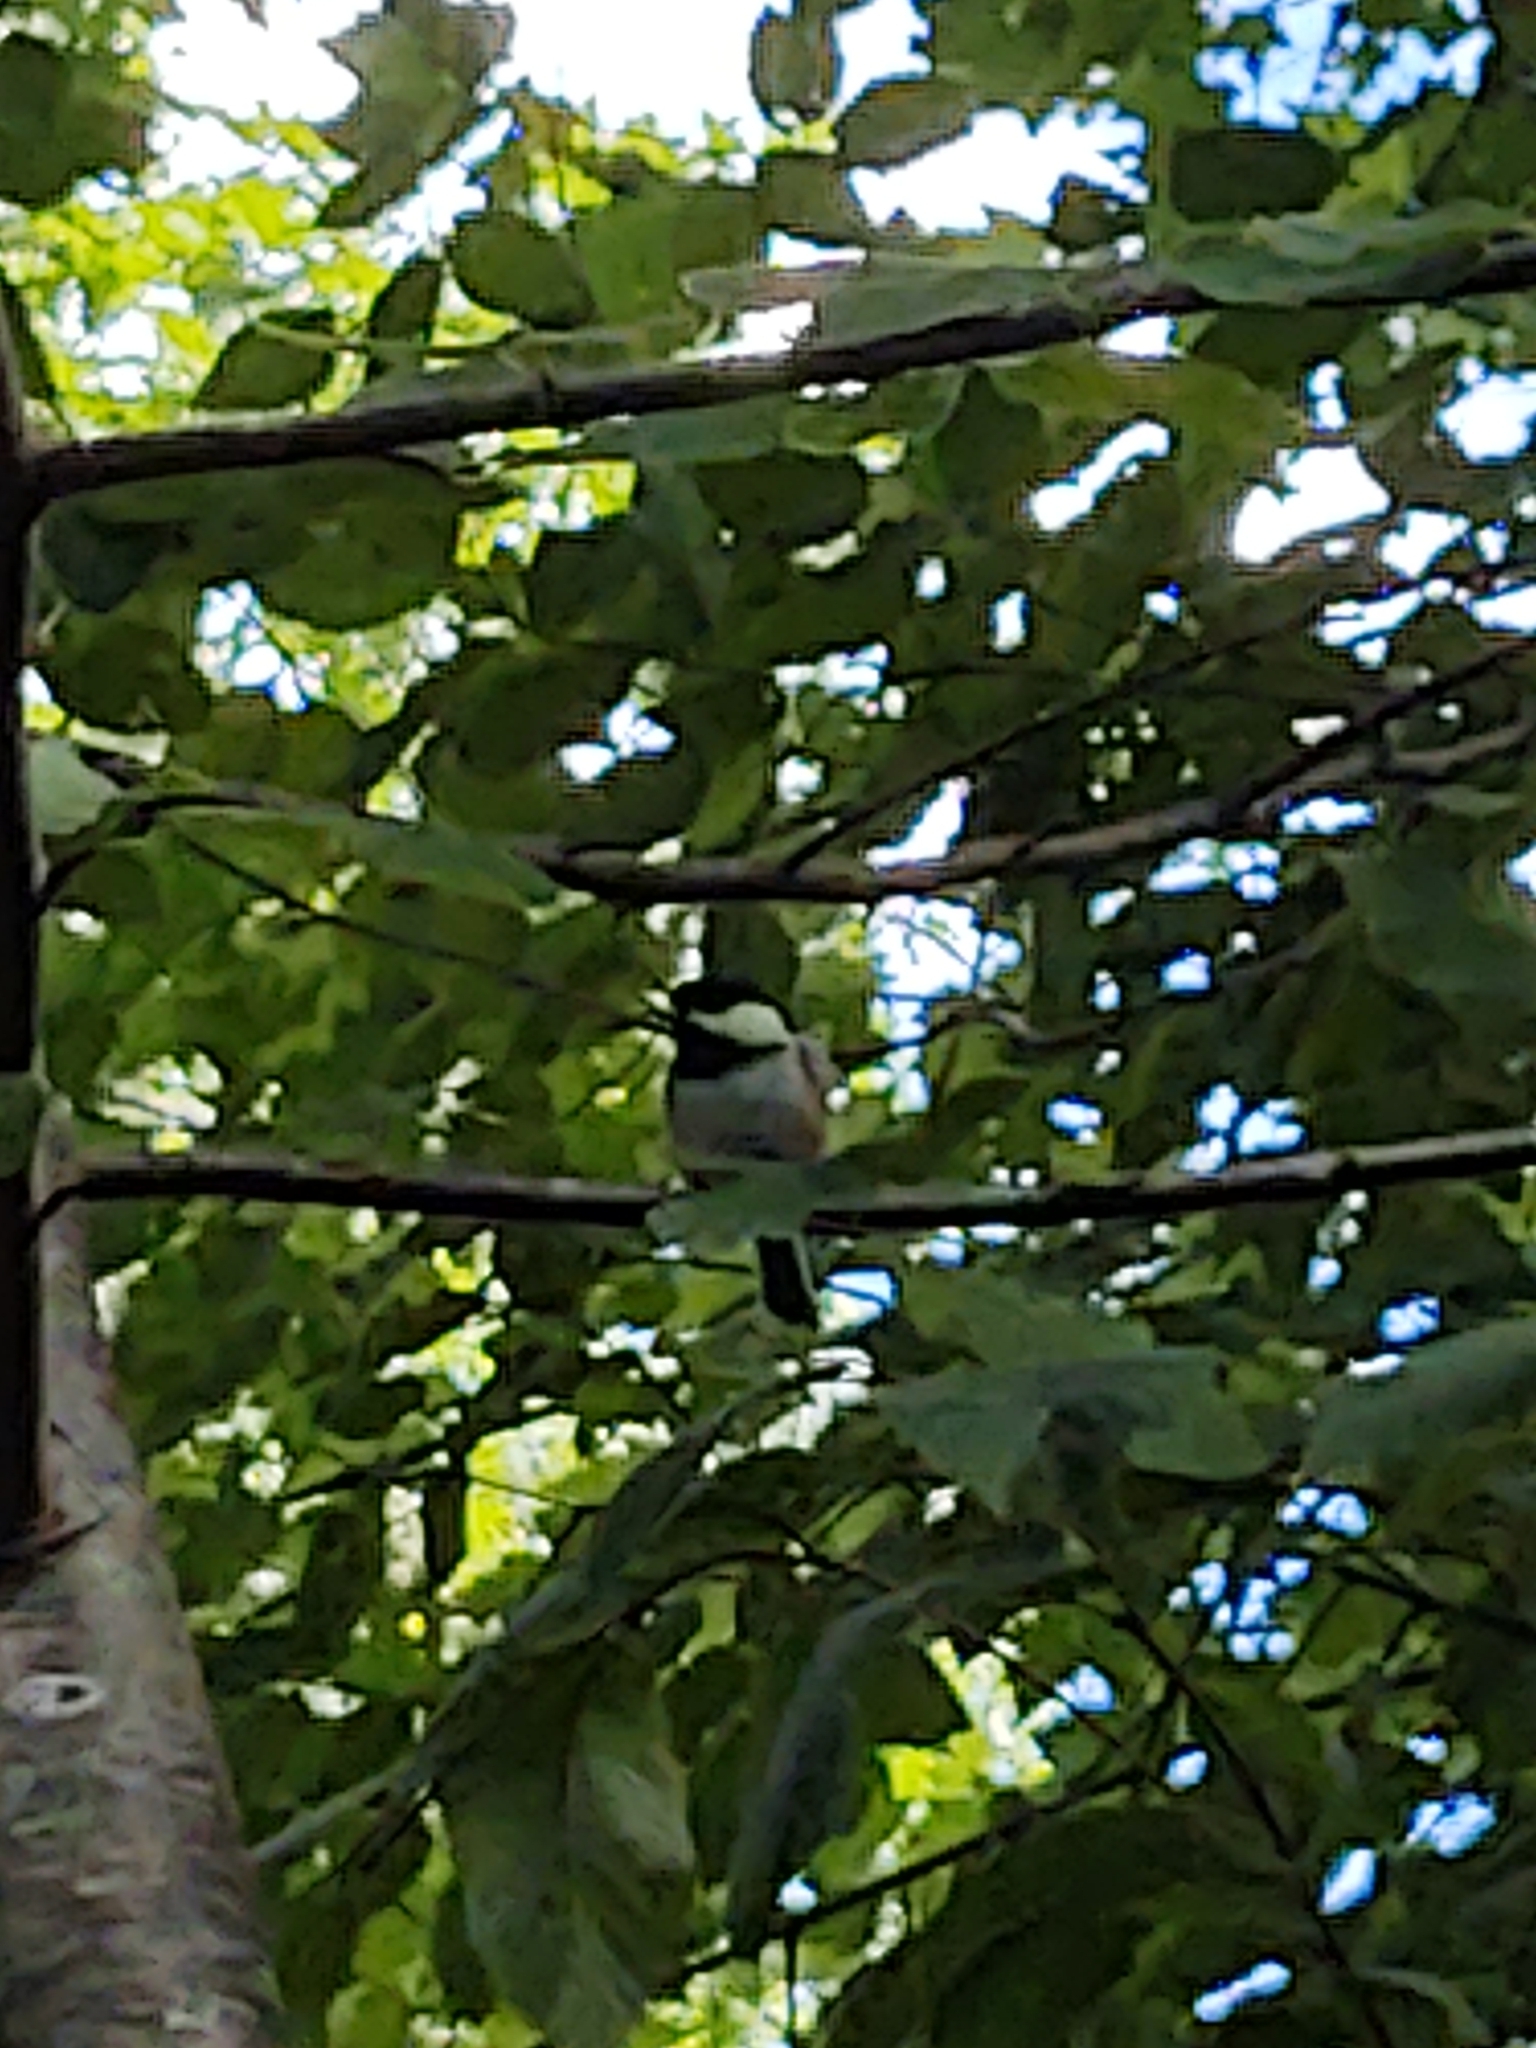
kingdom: Animalia
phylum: Chordata
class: Aves
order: Passeriformes
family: Paridae
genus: Poecile
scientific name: Poecile atricapillus
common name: Black-capped chickadee
